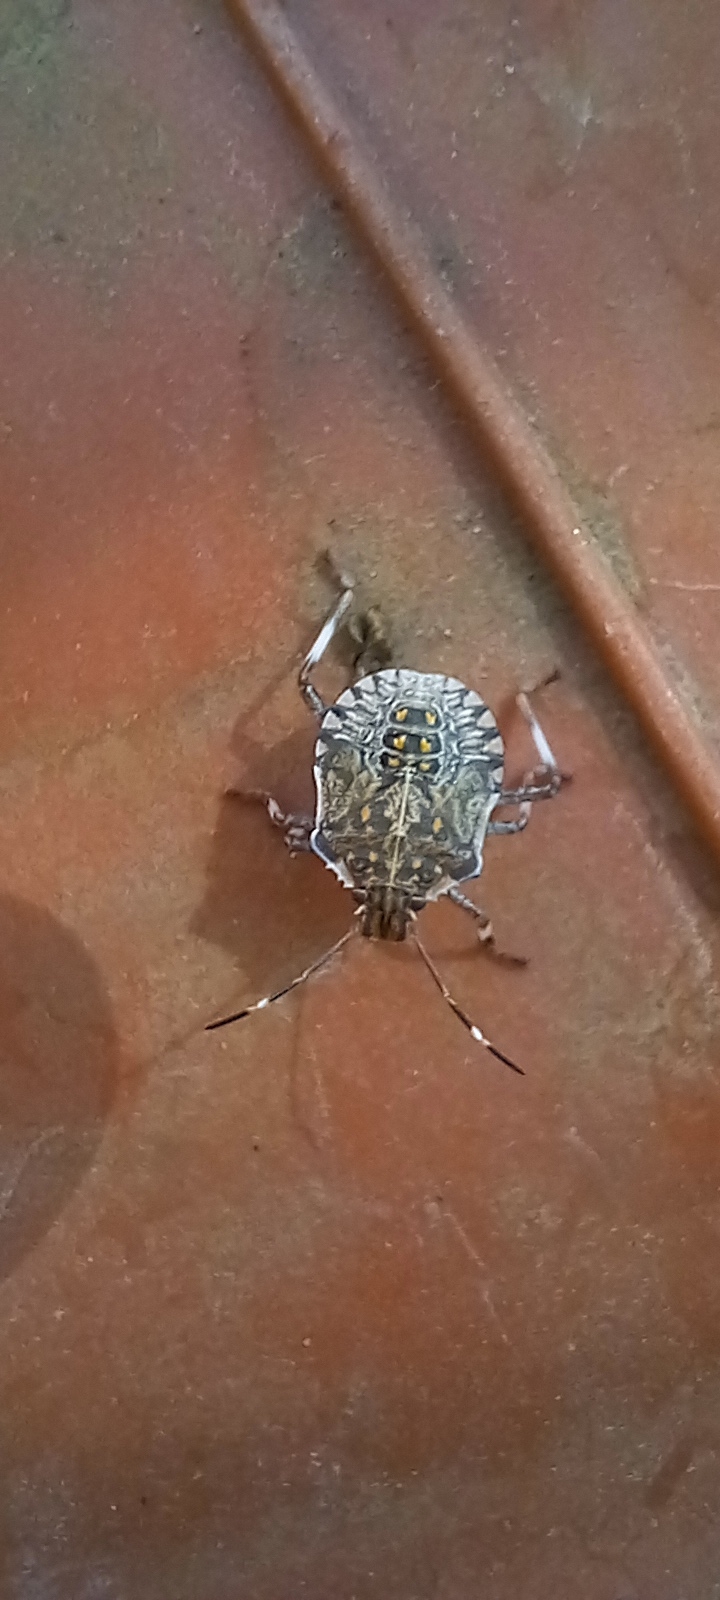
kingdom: Animalia
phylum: Arthropoda
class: Insecta
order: Hemiptera
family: Pentatomidae
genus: Halyomorpha
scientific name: Halyomorpha halys
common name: Brown marmorated stink bug
